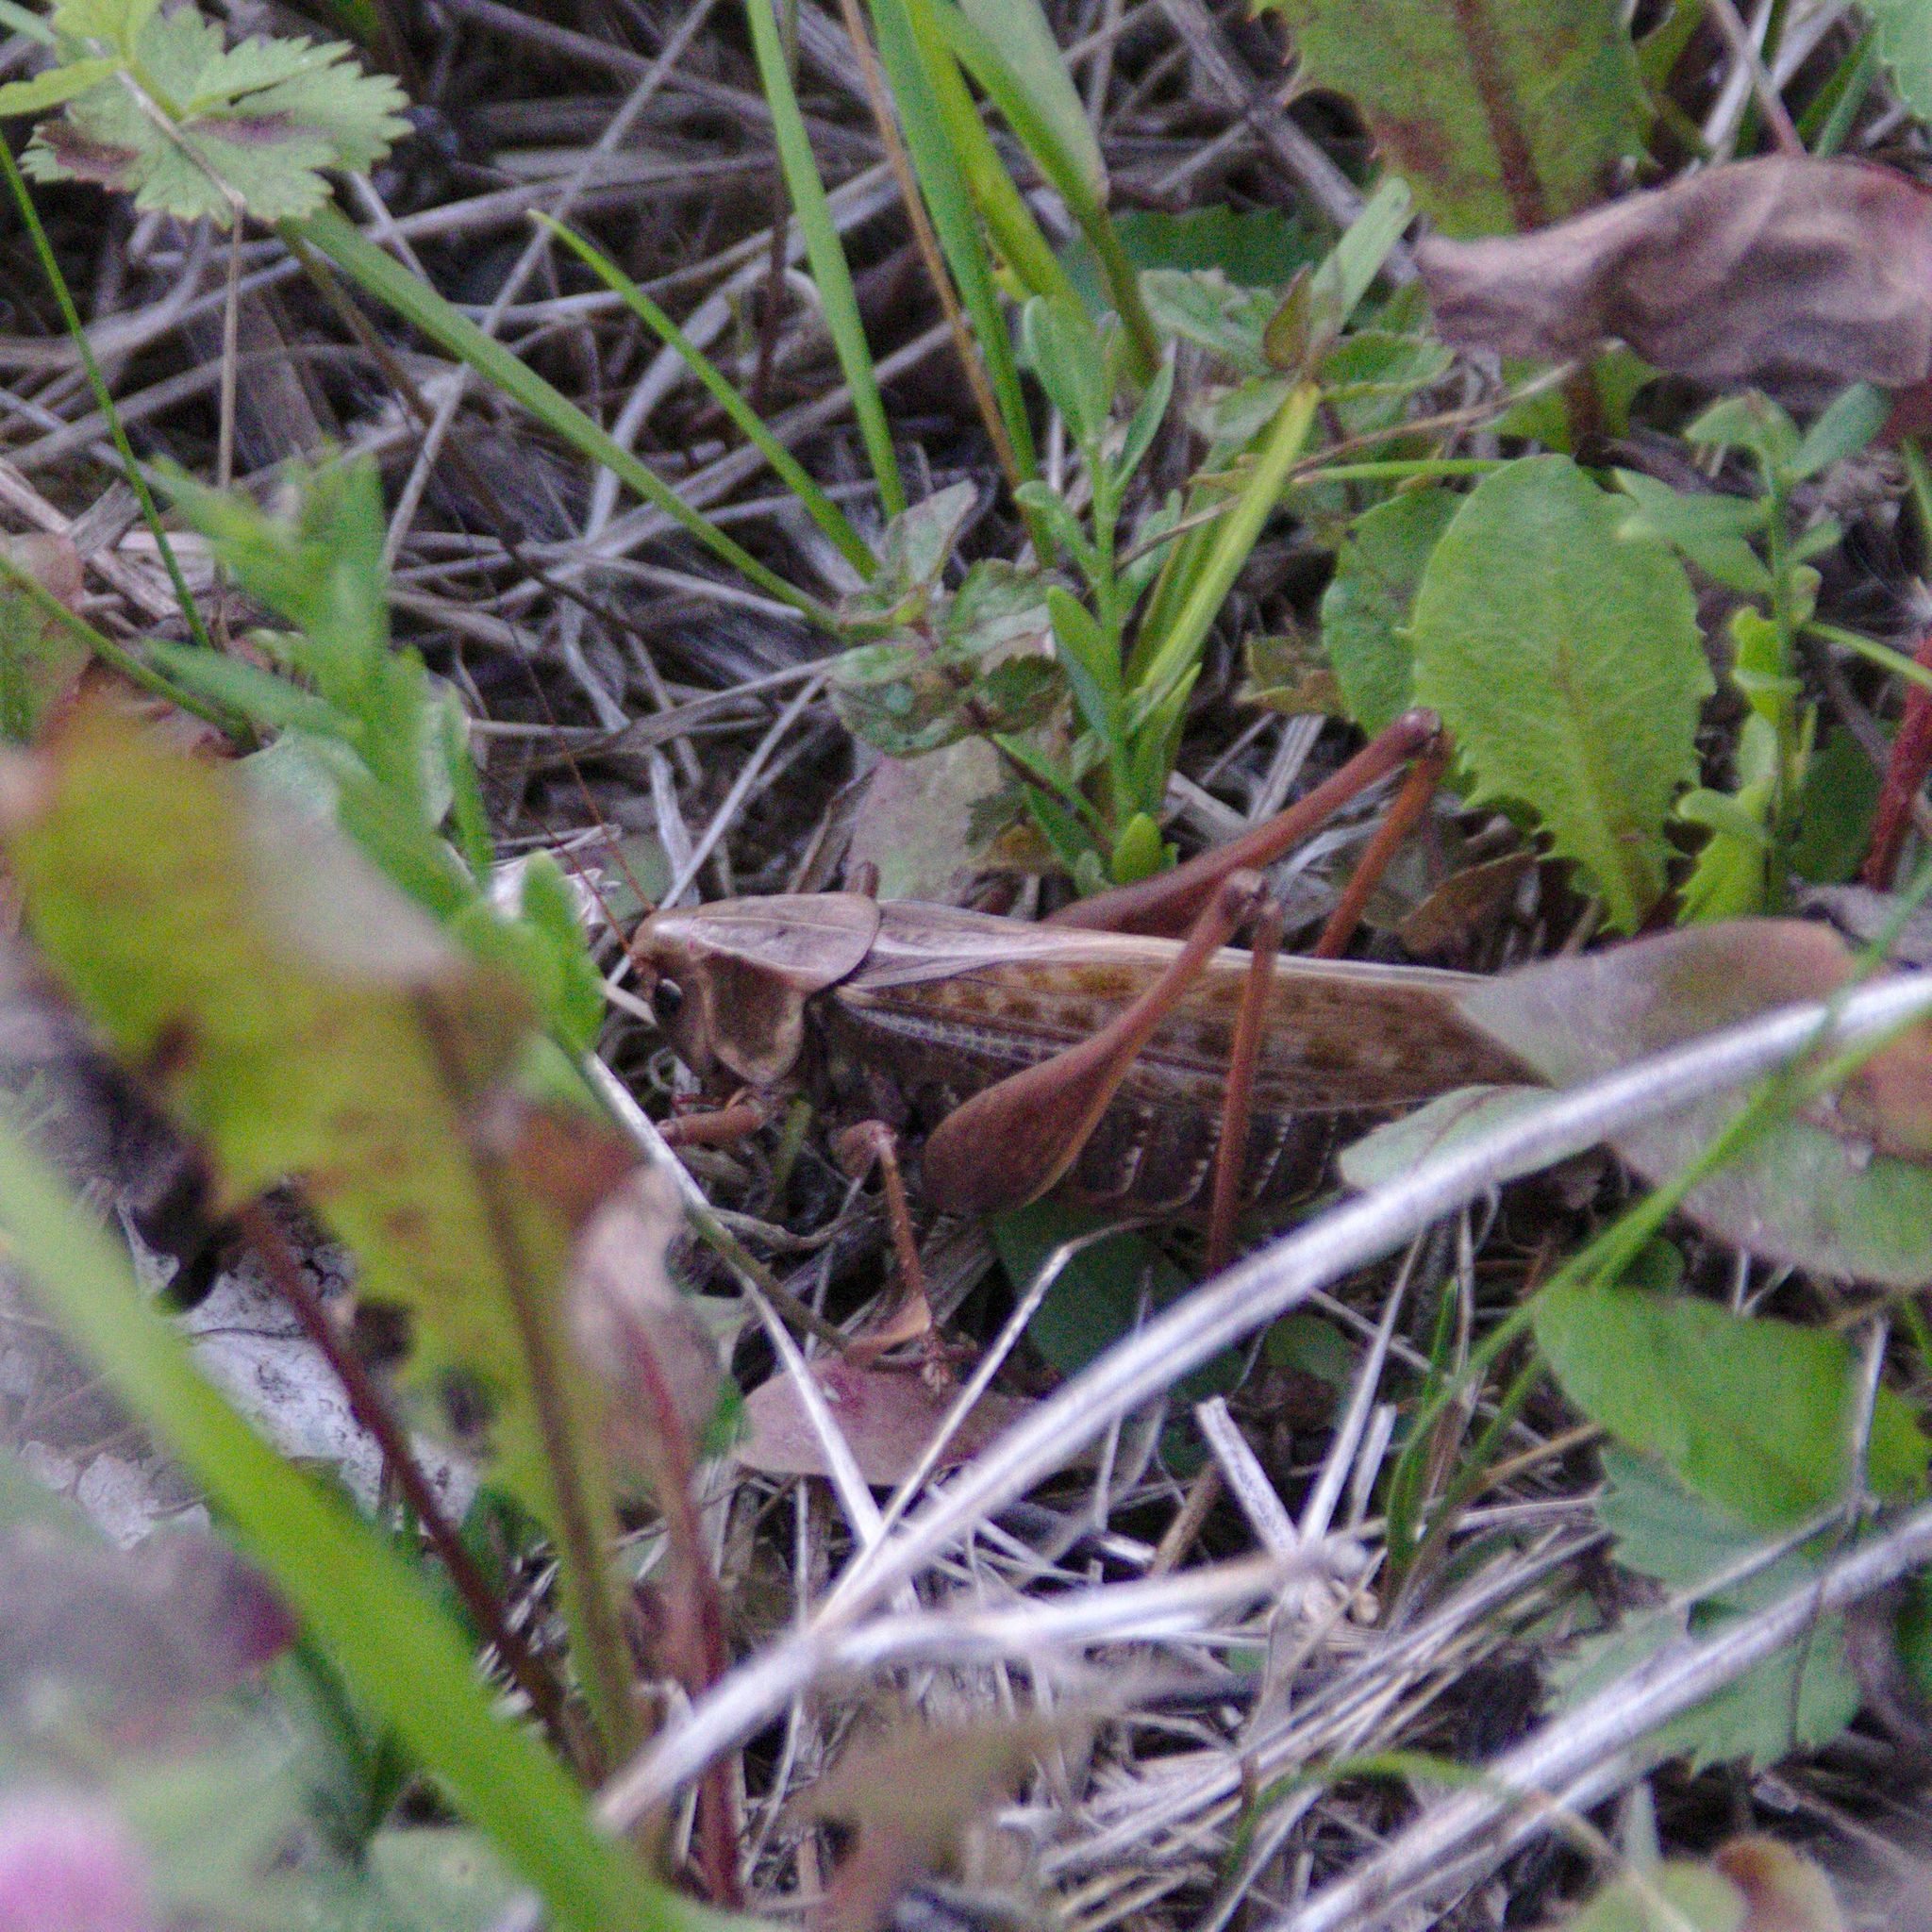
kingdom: Animalia
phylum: Arthropoda
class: Insecta
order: Orthoptera
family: Tettigoniidae
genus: Decticus
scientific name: Decticus verrucivorus
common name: Wart-biter
